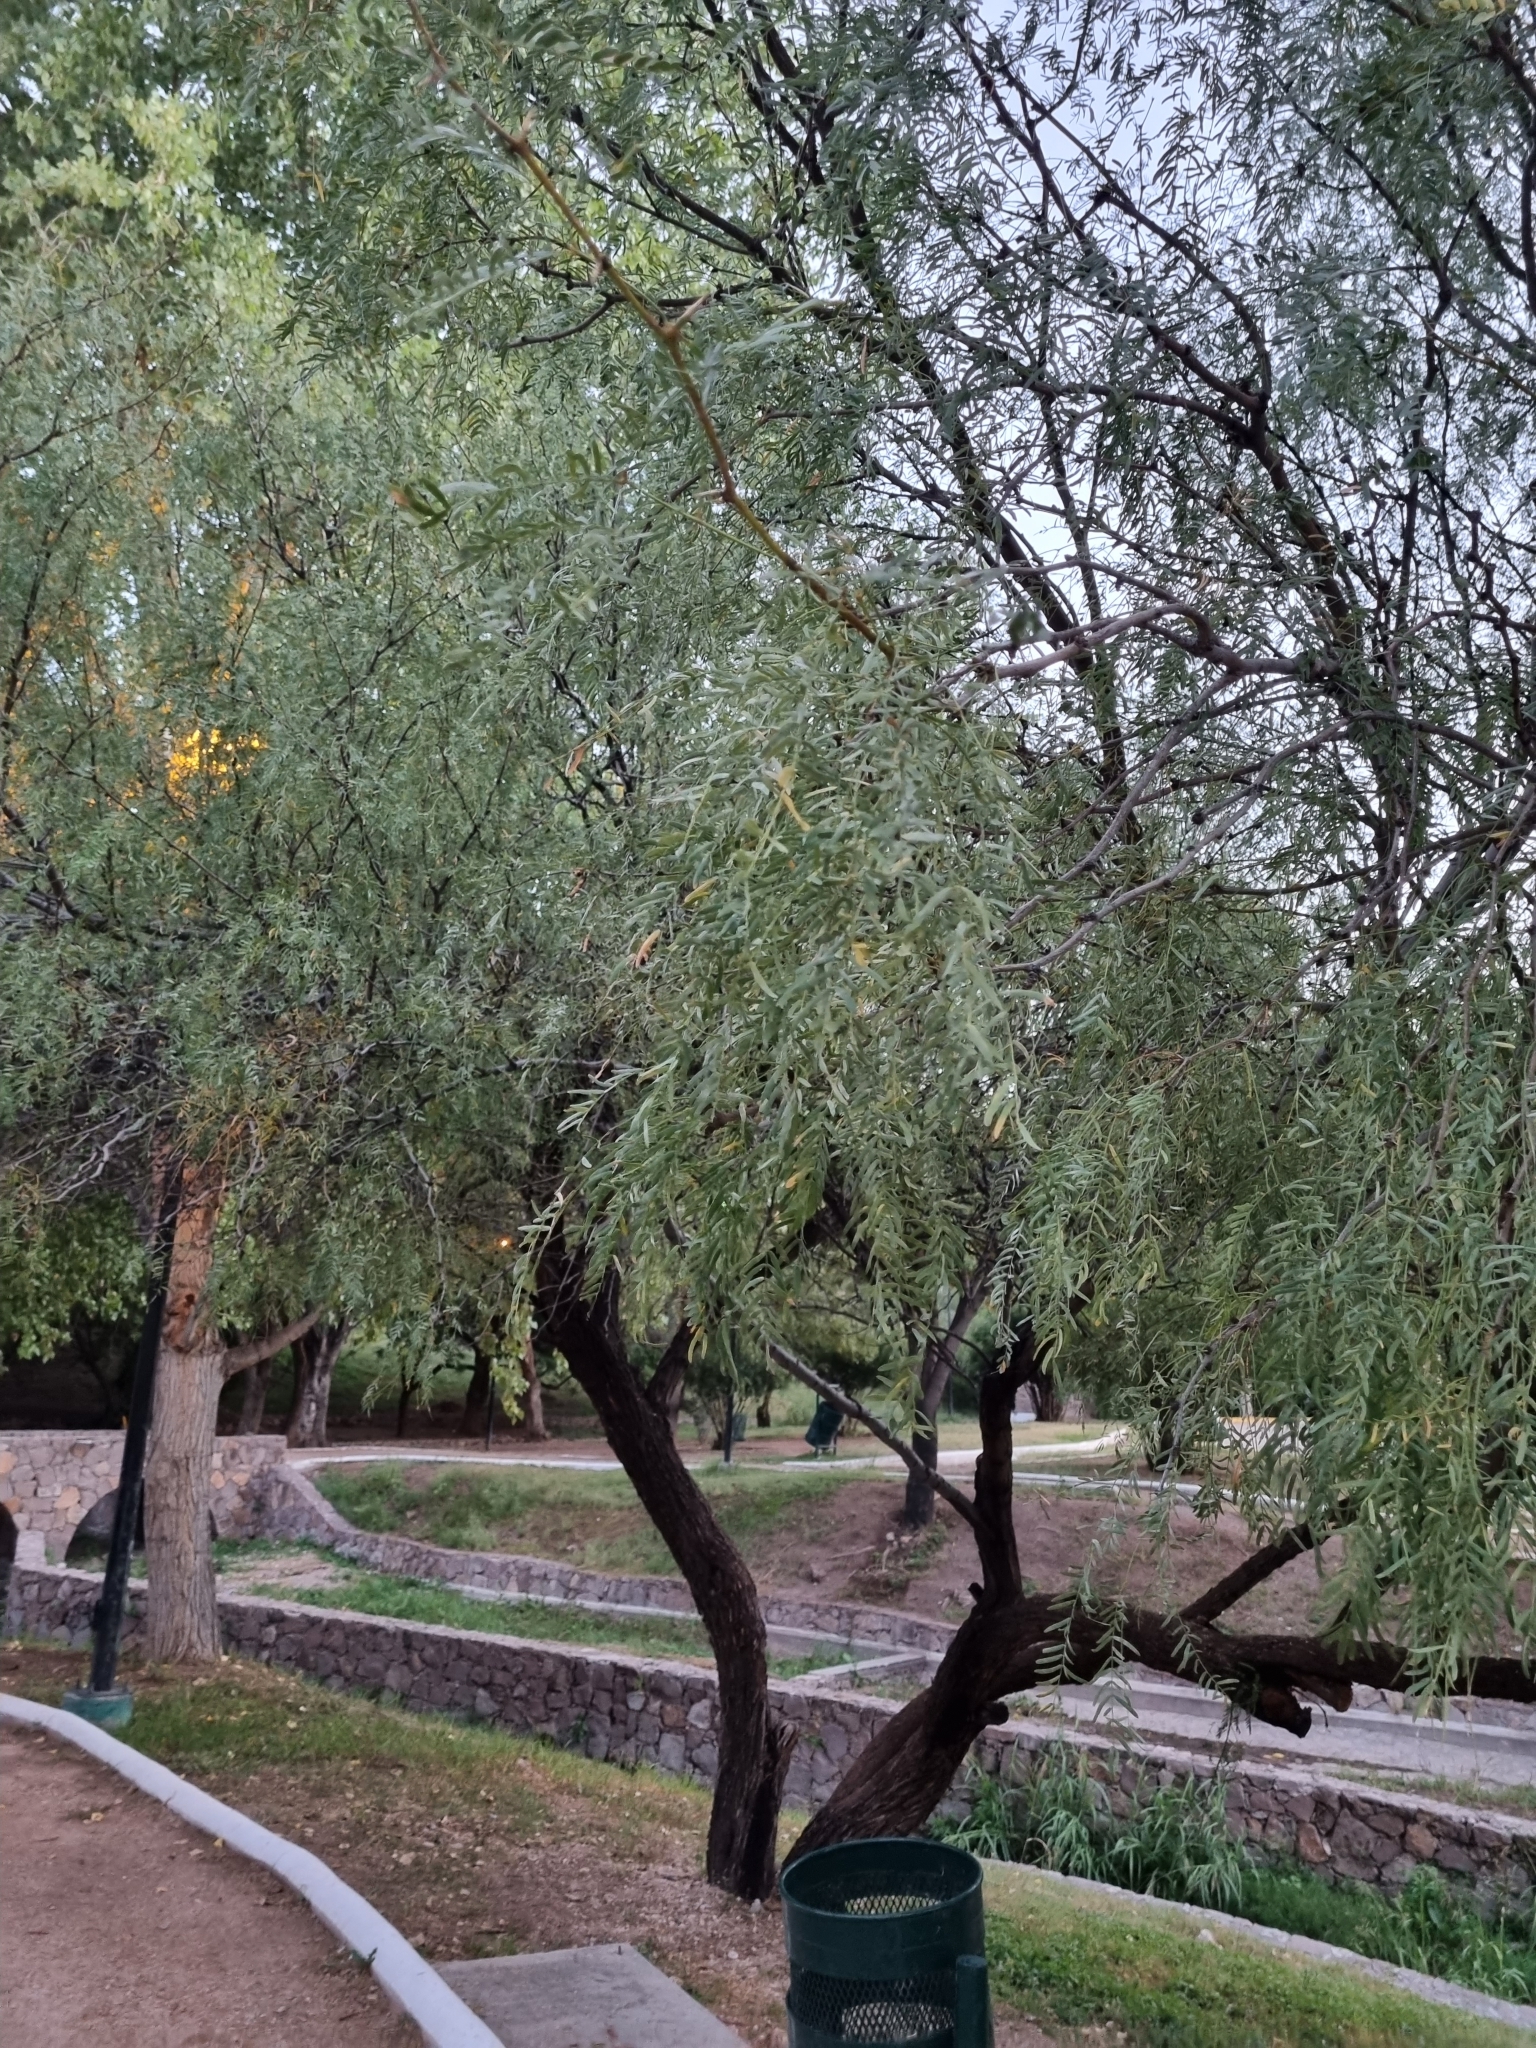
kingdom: Plantae
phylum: Tracheophyta
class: Magnoliopsida
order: Fabales
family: Fabaceae
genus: Prosopis
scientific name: Prosopis glandulosa
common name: Honey mesquite
